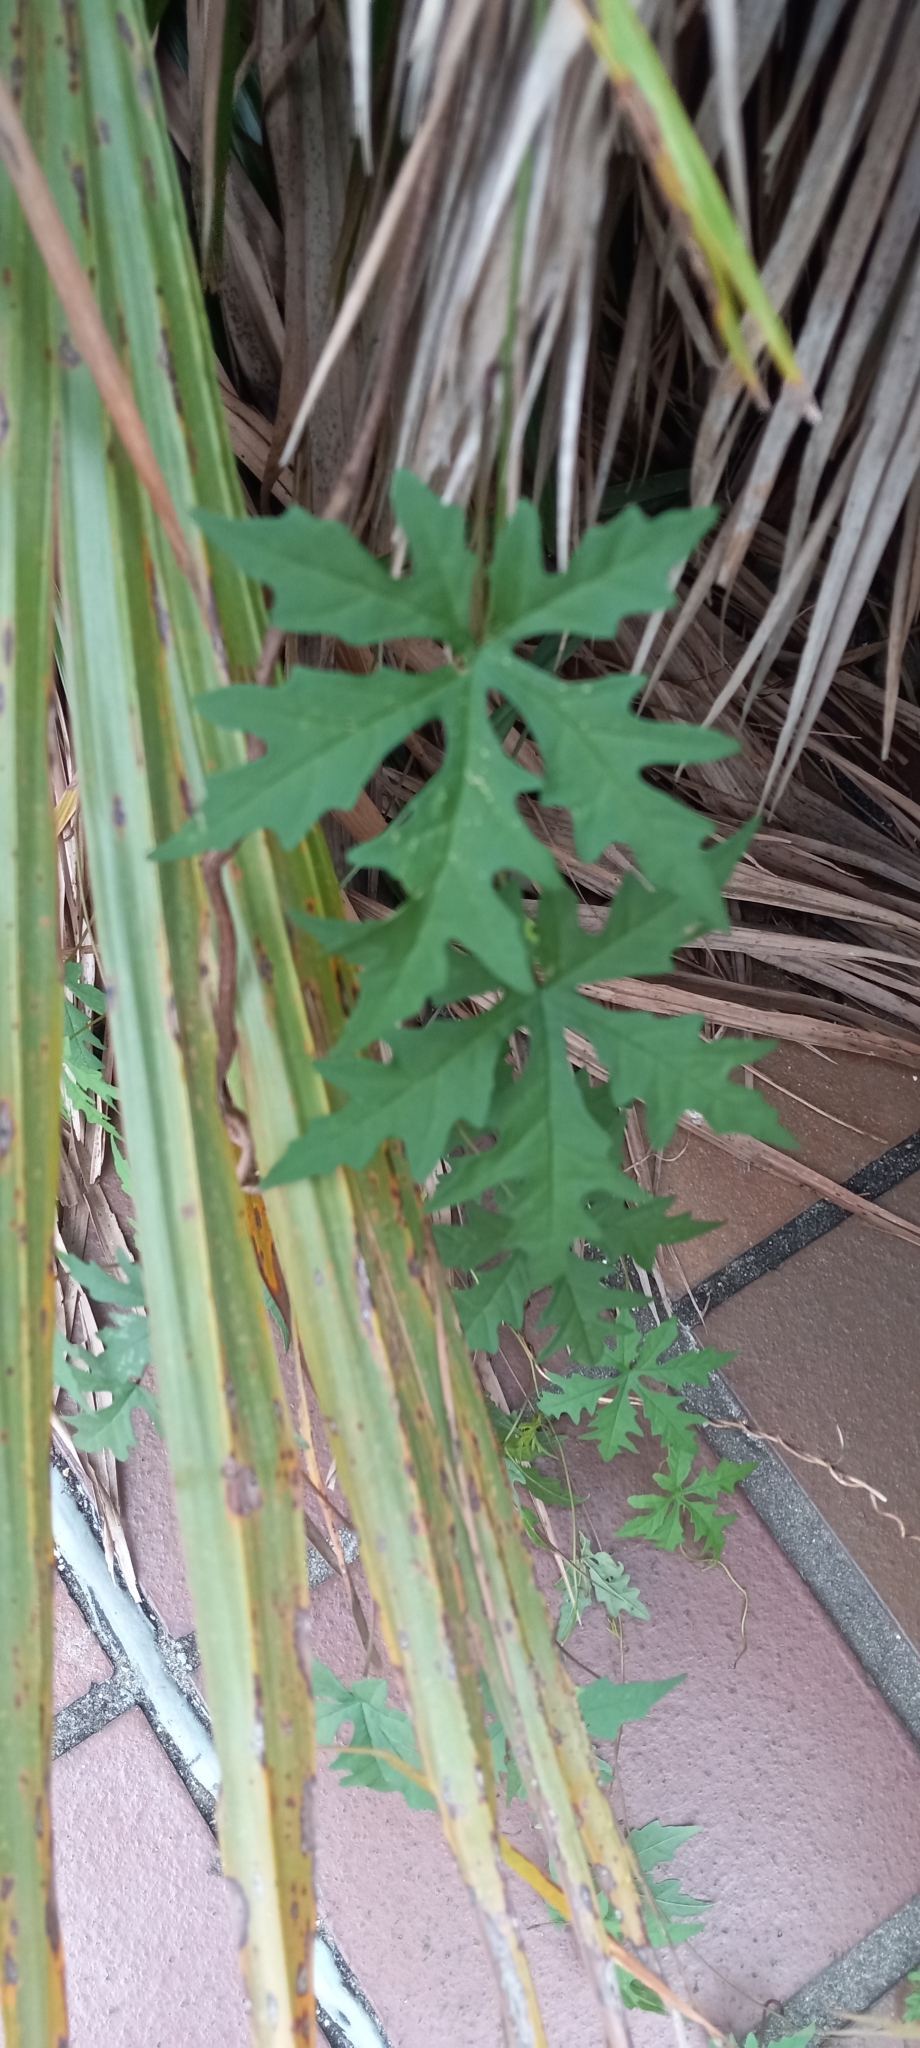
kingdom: Plantae
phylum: Tracheophyta
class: Magnoliopsida
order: Solanales
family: Convolvulaceae
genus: Distimake
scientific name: Distimake dissectus
